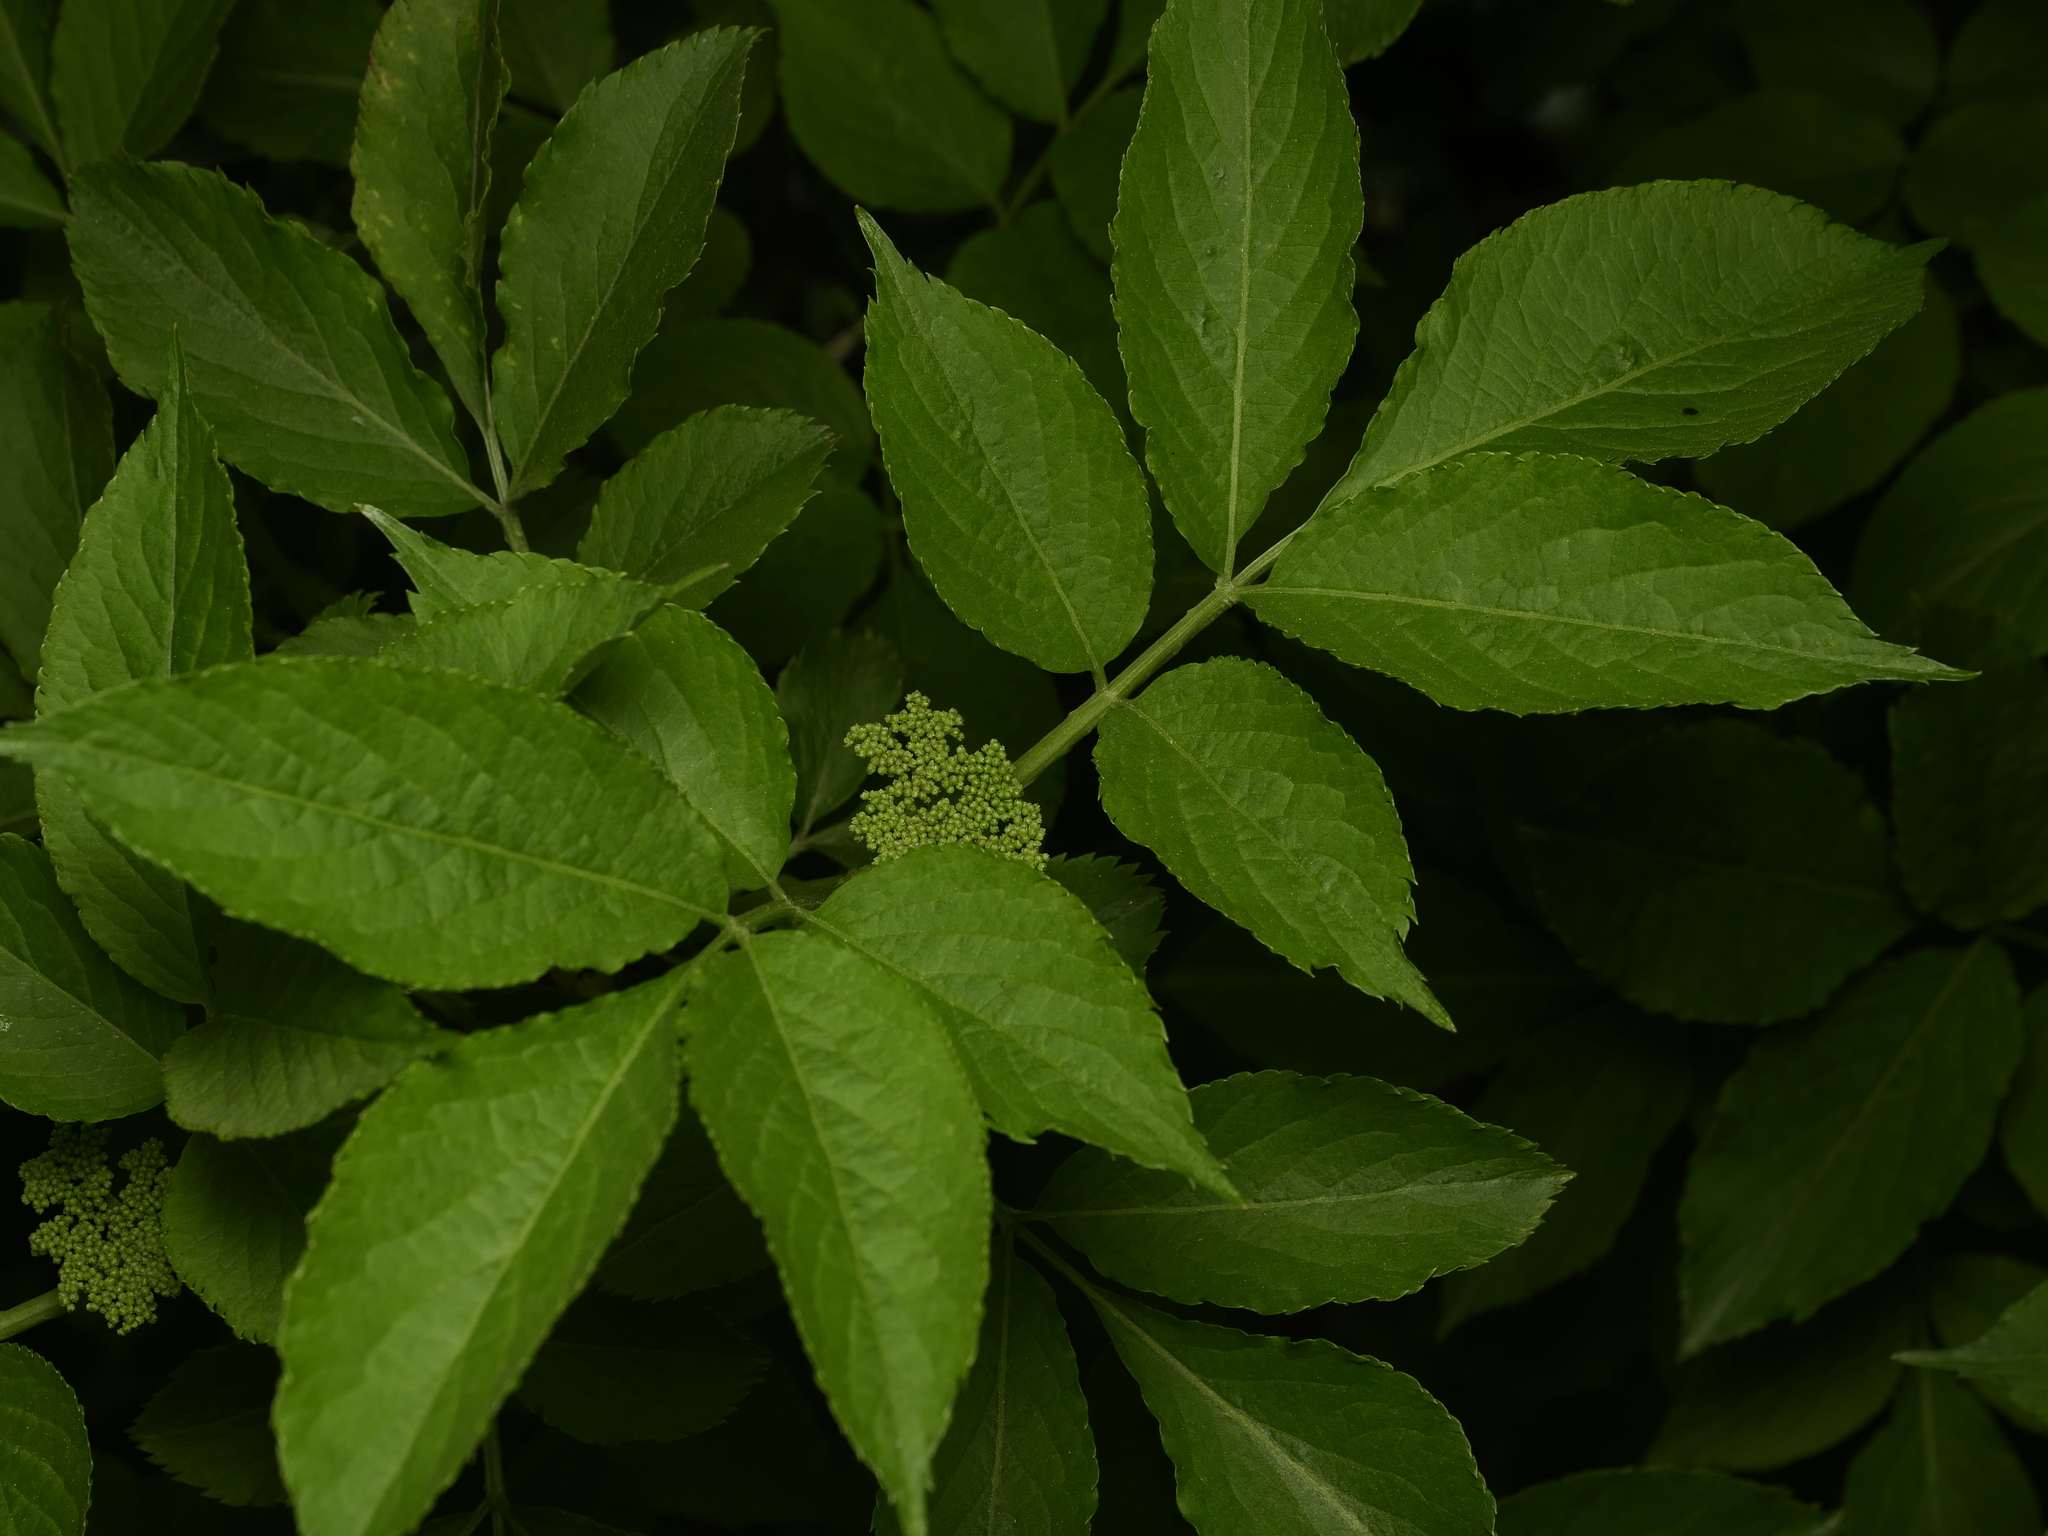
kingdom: Plantae
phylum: Tracheophyta
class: Magnoliopsida
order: Dipsacales
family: Viburnaceae
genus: Sambucus
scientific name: Sambucus nigra
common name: Elder
